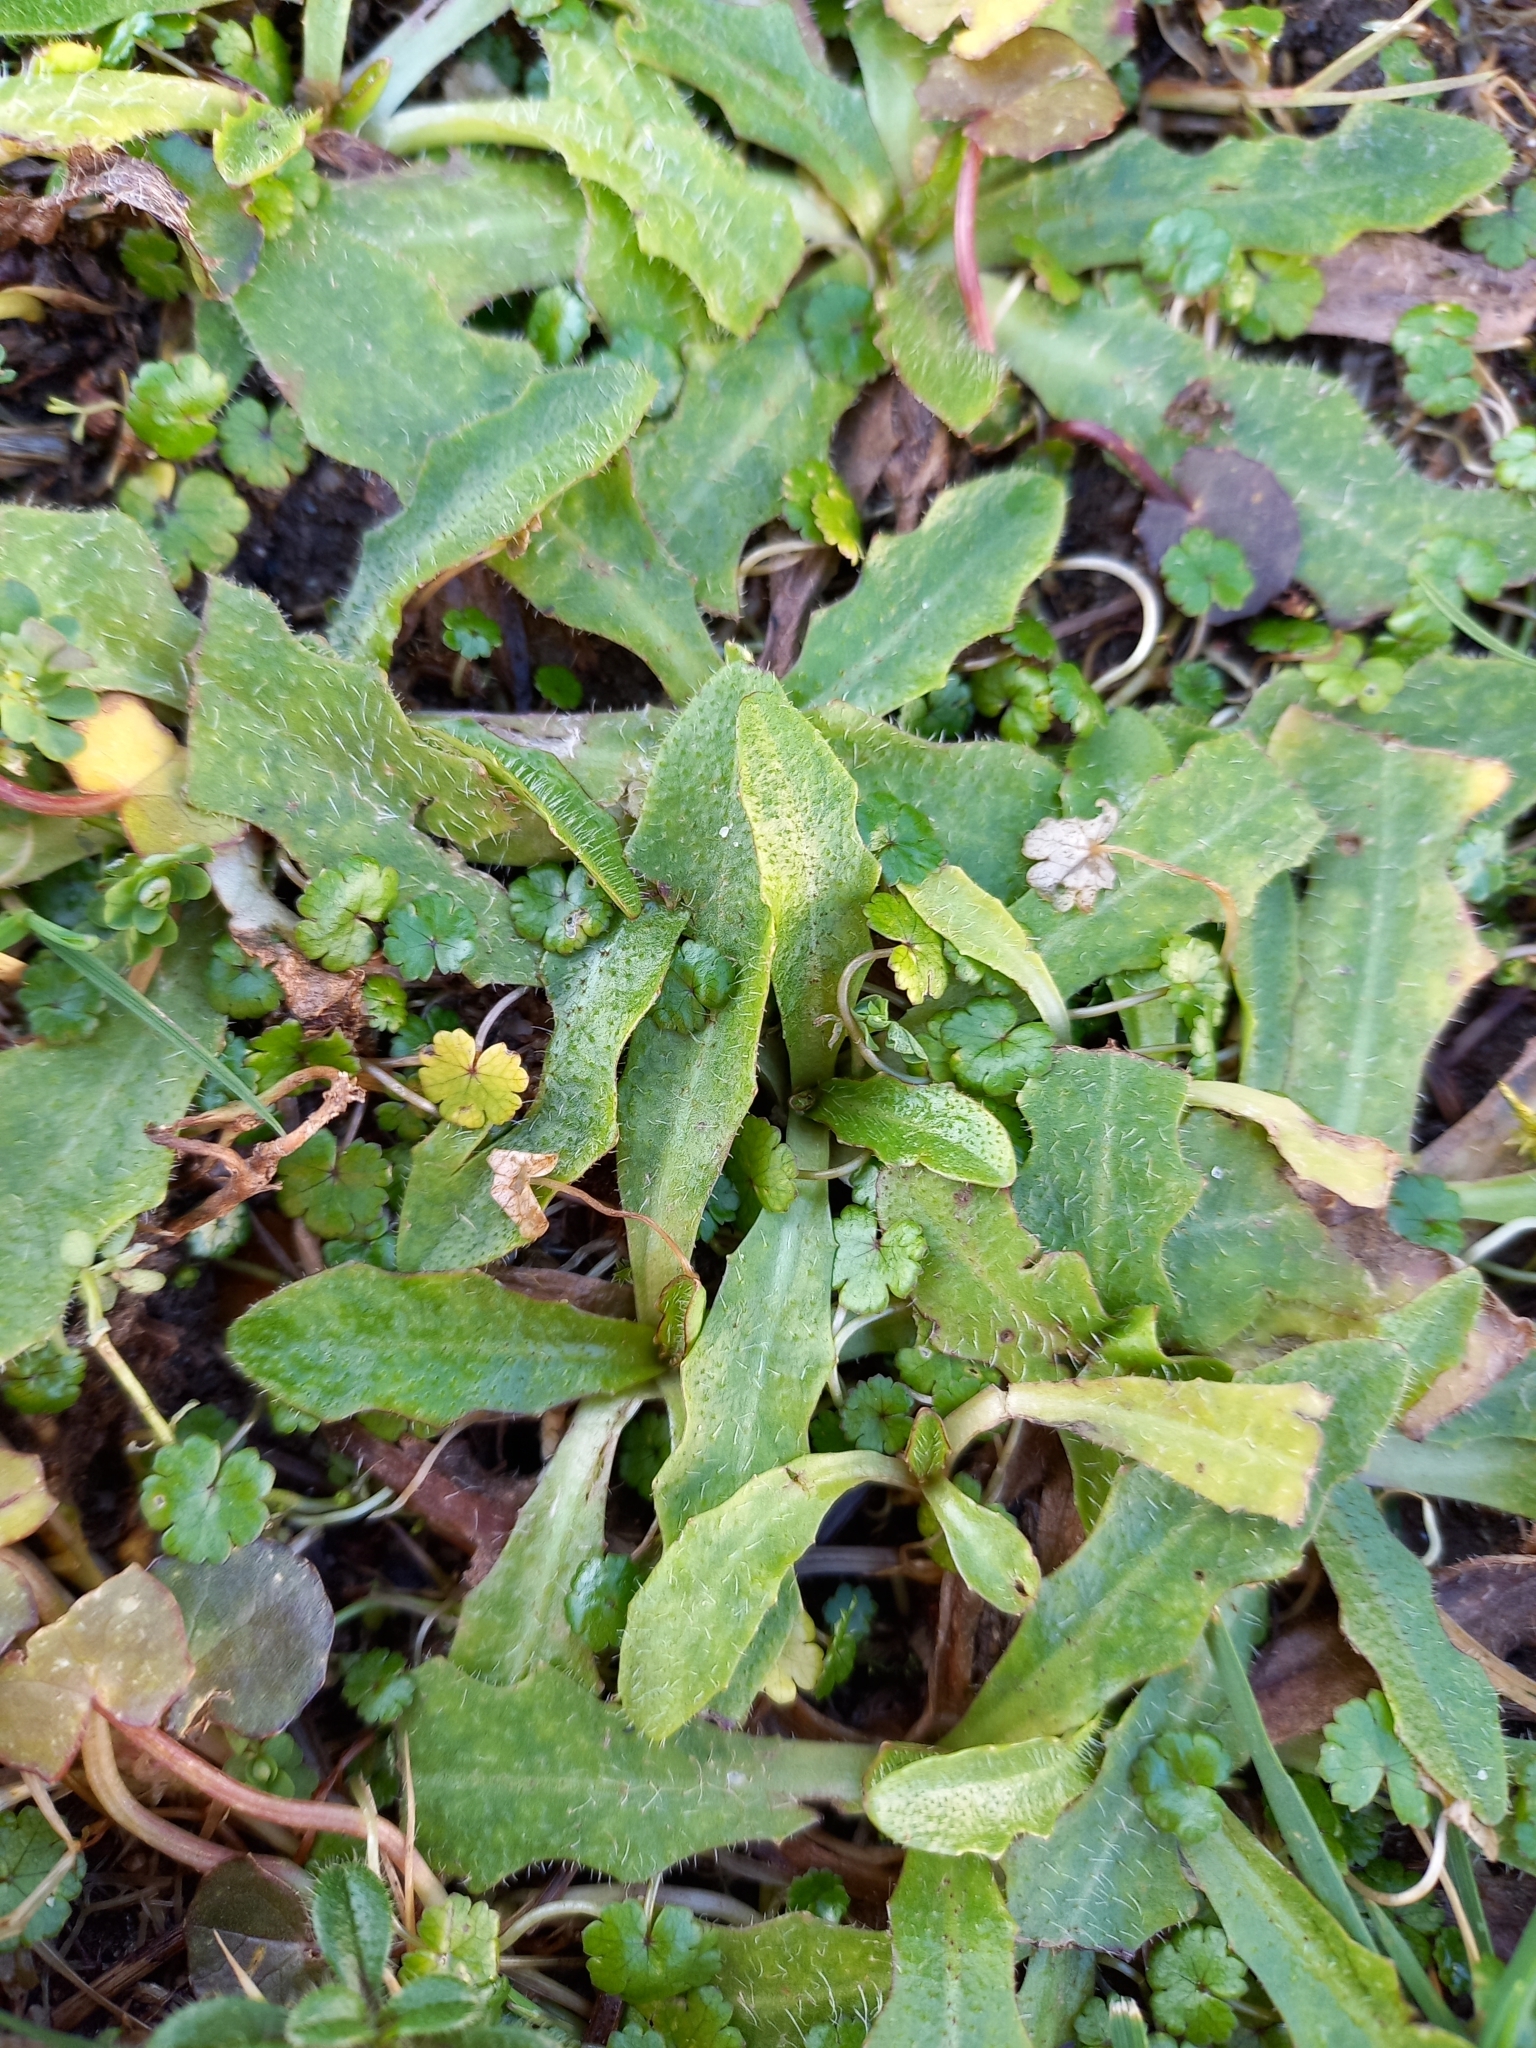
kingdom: Plantae
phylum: Tracheophyta
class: Magnoliopsida
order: Asterales
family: Asteraceae
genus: Hypochaeris
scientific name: Hypochaeris radicata
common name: Flatweed
